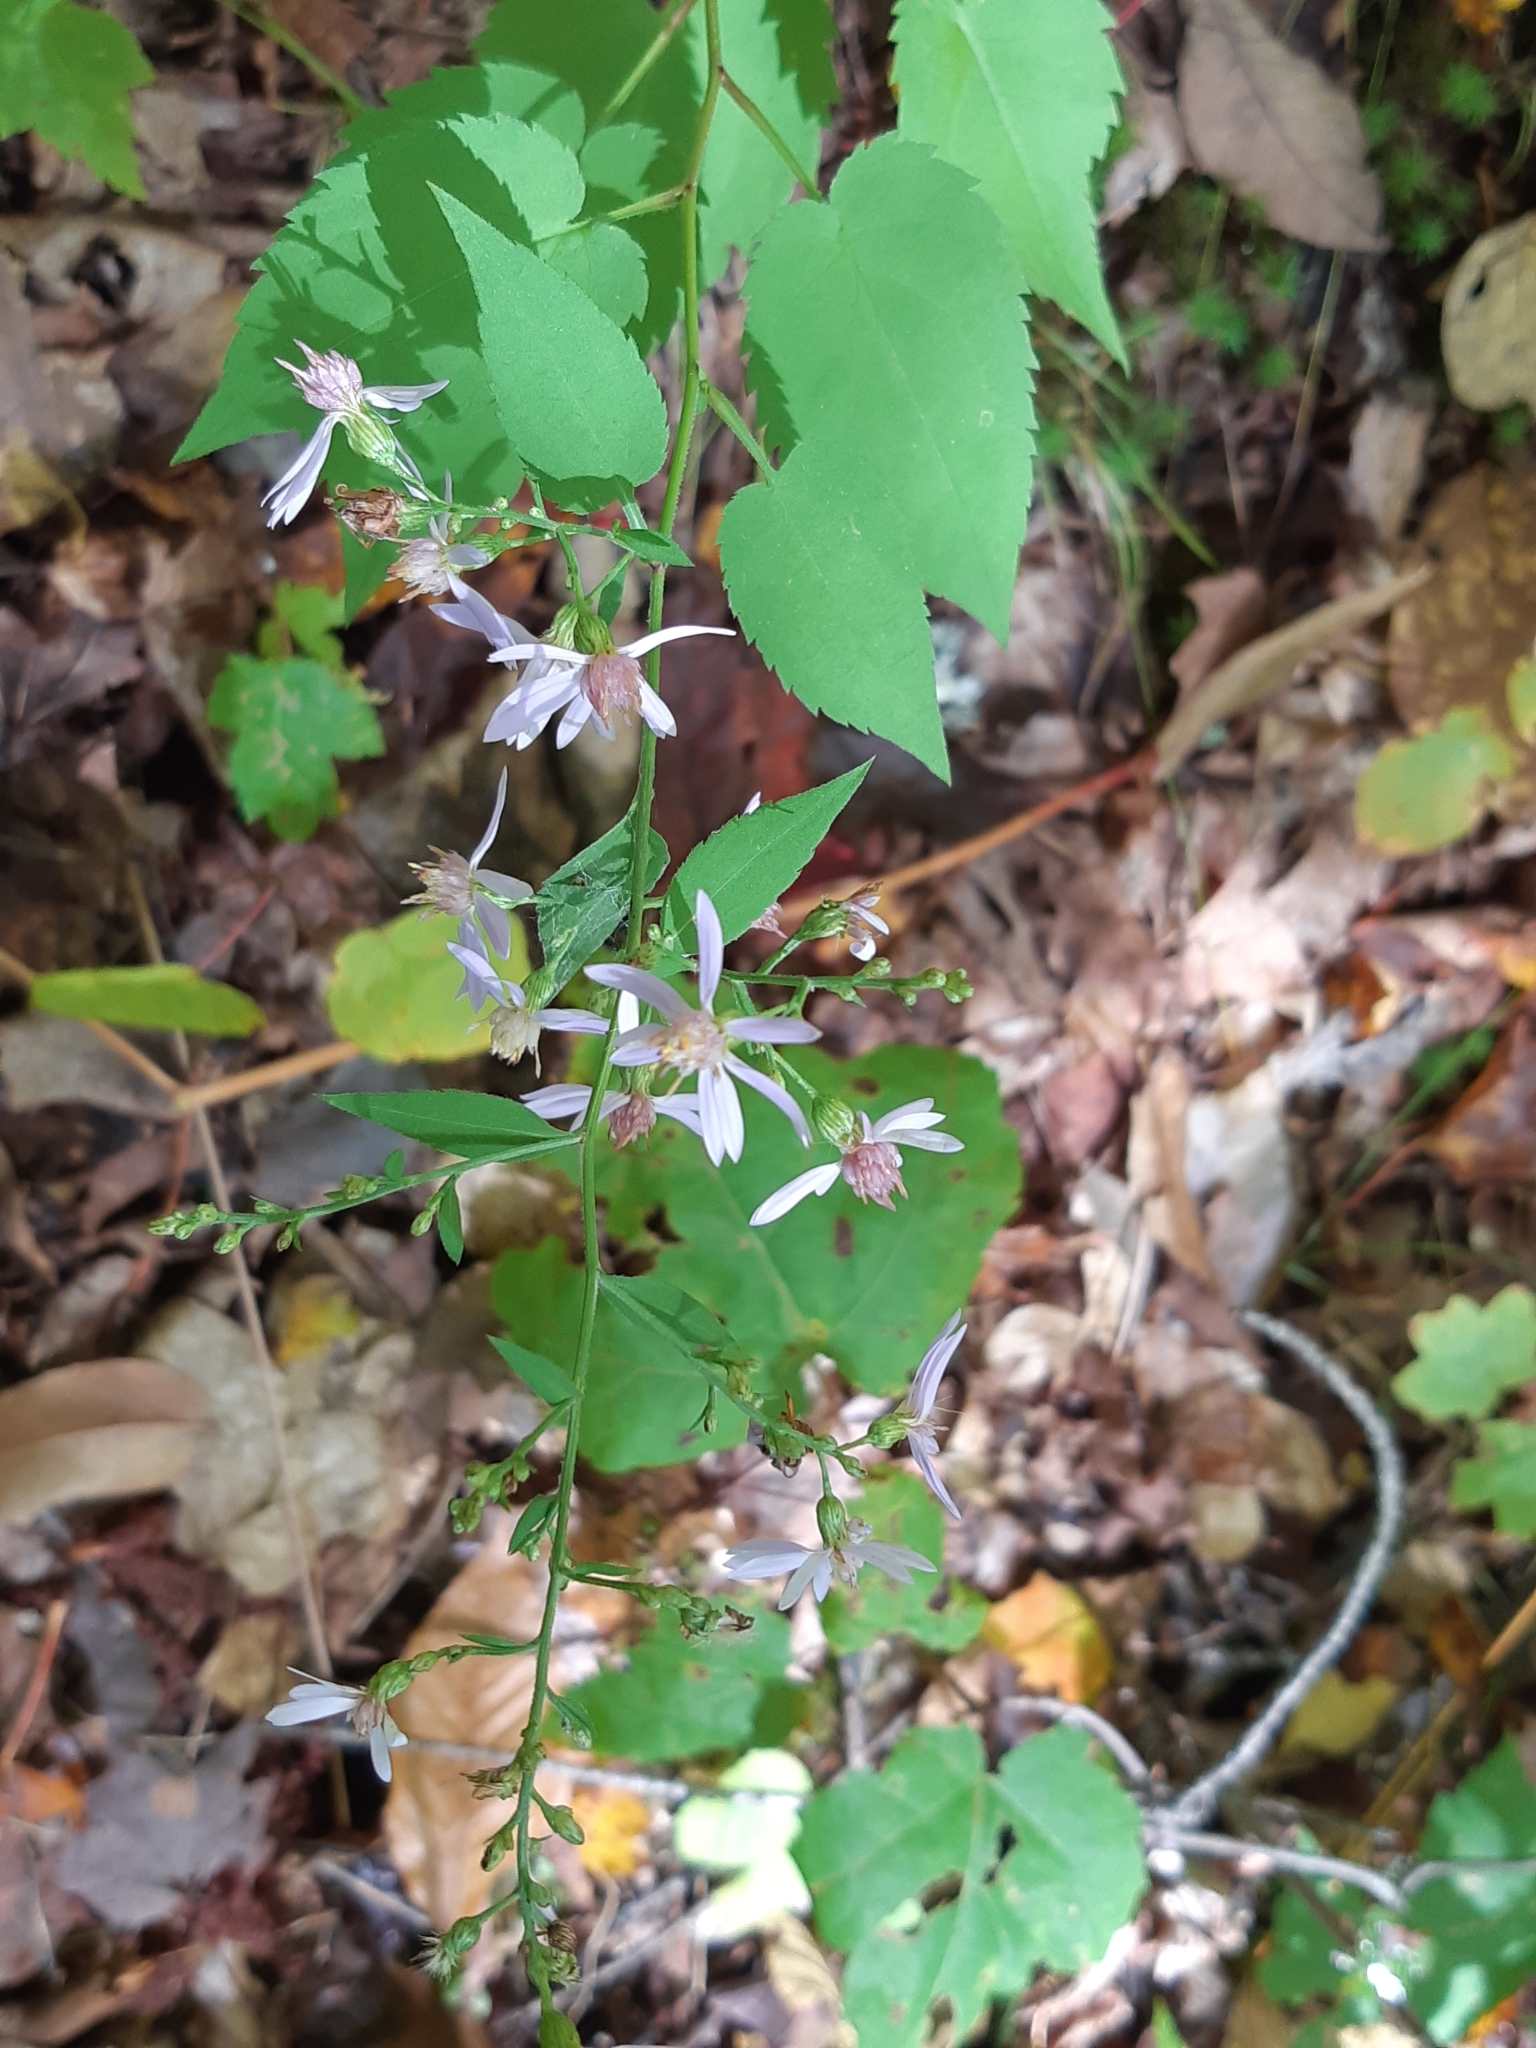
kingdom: Plantae
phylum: Tracheophyta
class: Magnoliopsida
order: Asterales
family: Asteraceae
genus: Eurybia
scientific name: Eurybia macrophylla
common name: Big-leaved aster
